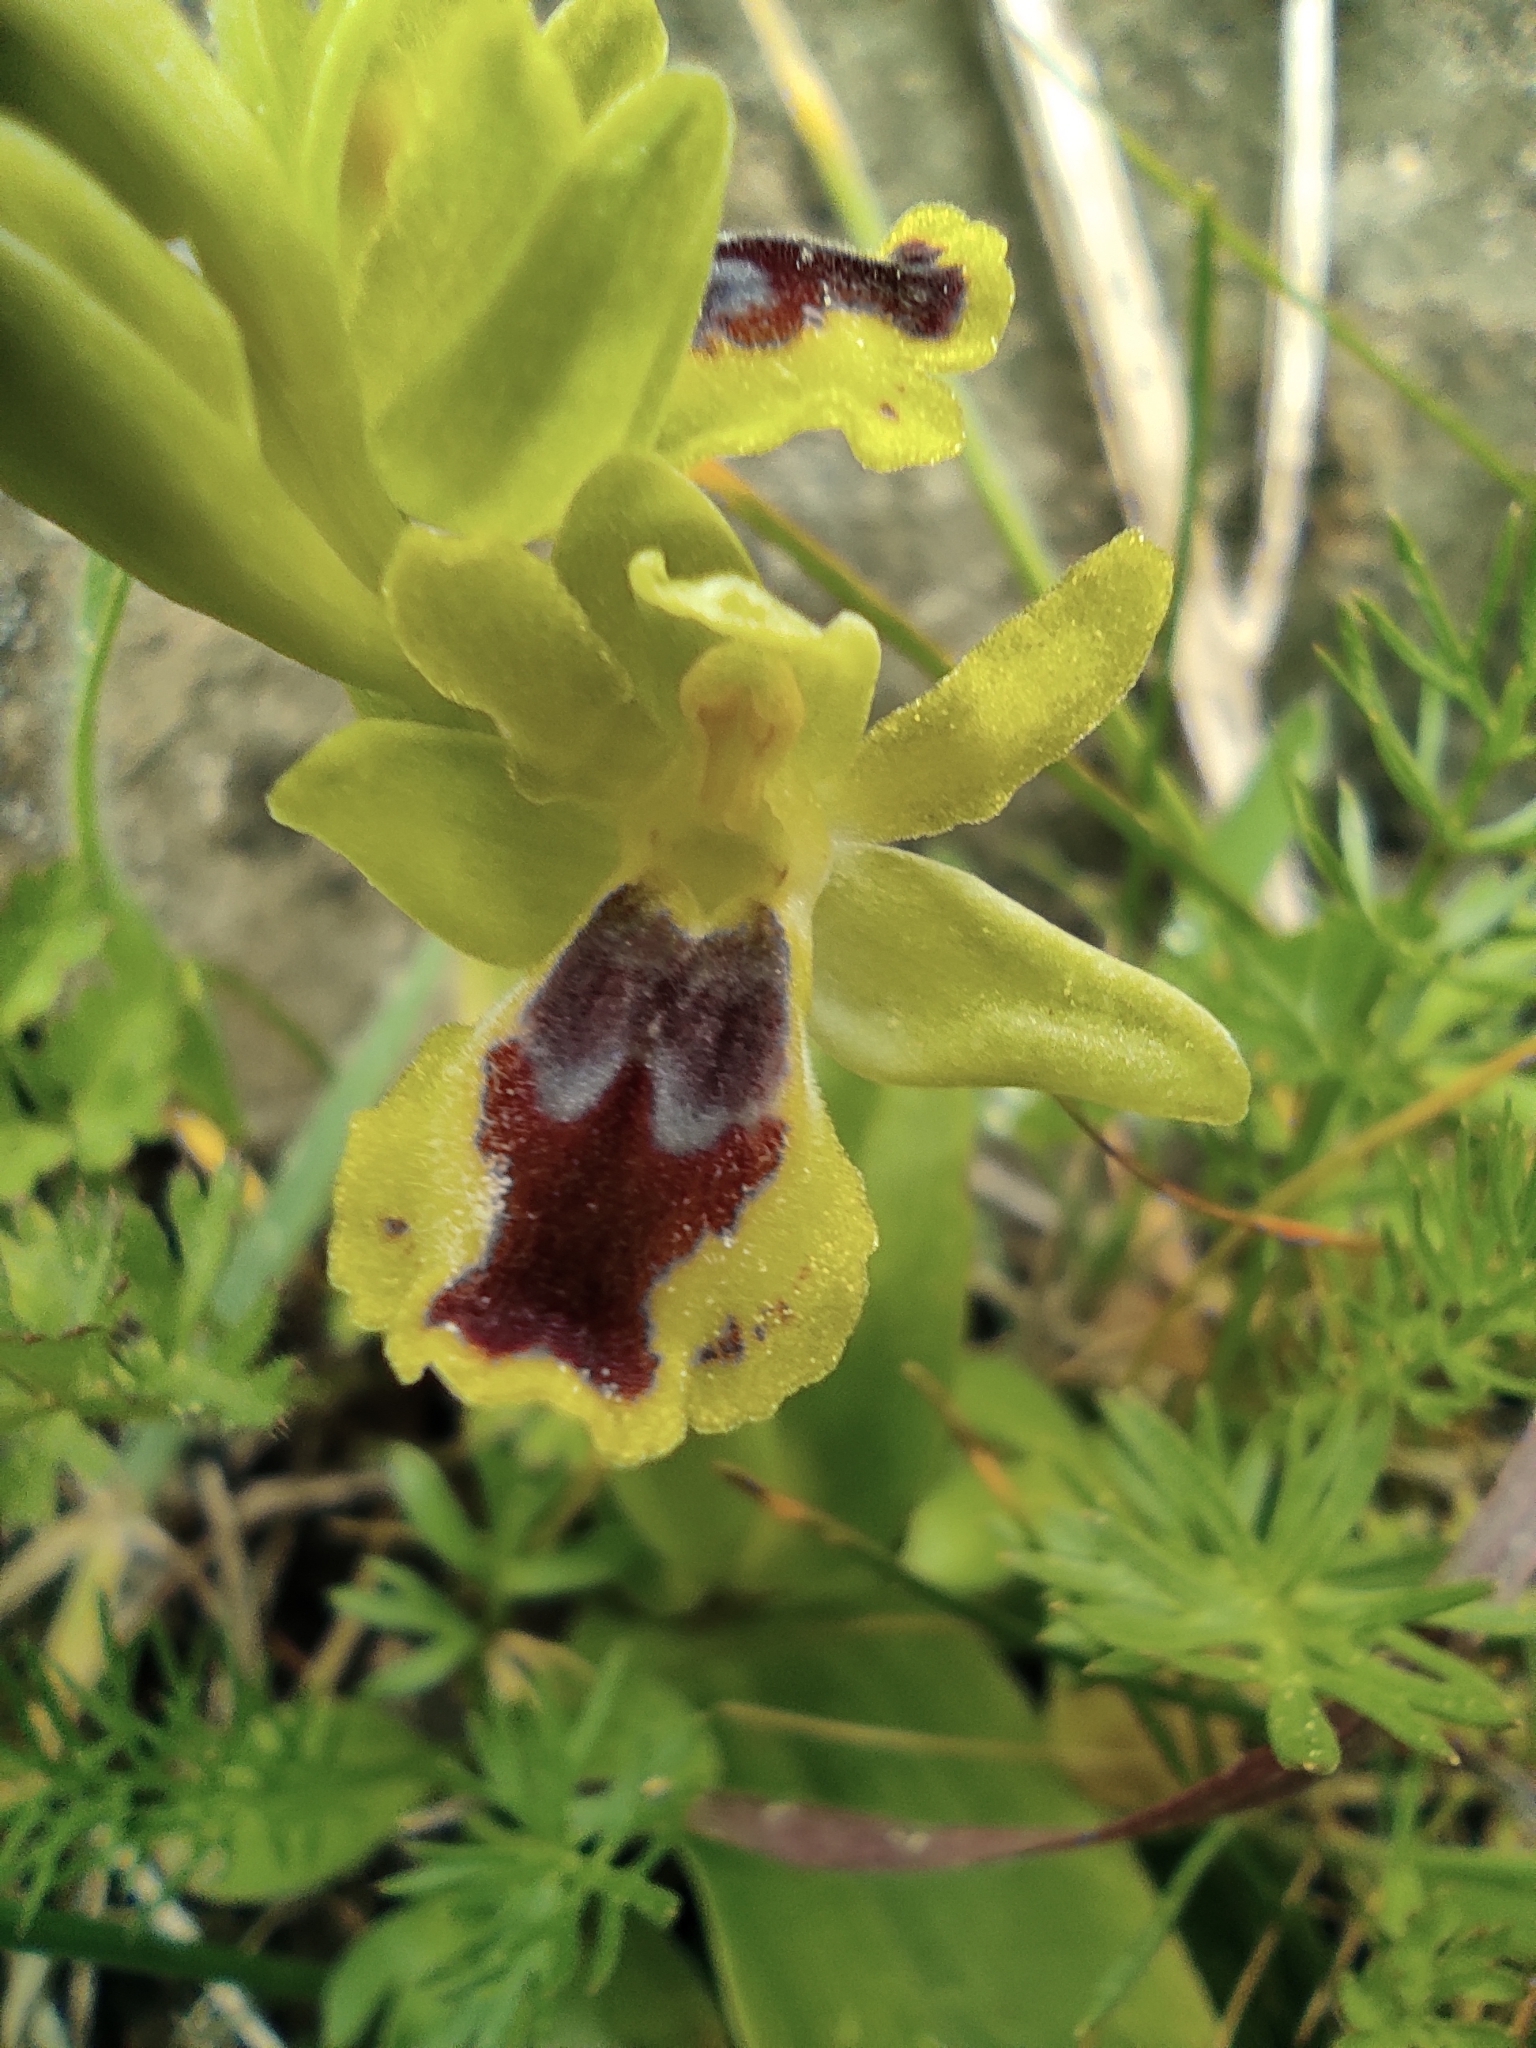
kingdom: Plantae
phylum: Tracheophyta
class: Liliopsida
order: Asparagales
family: Orchidaceae
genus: Ophrys
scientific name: Ophrys lutea
